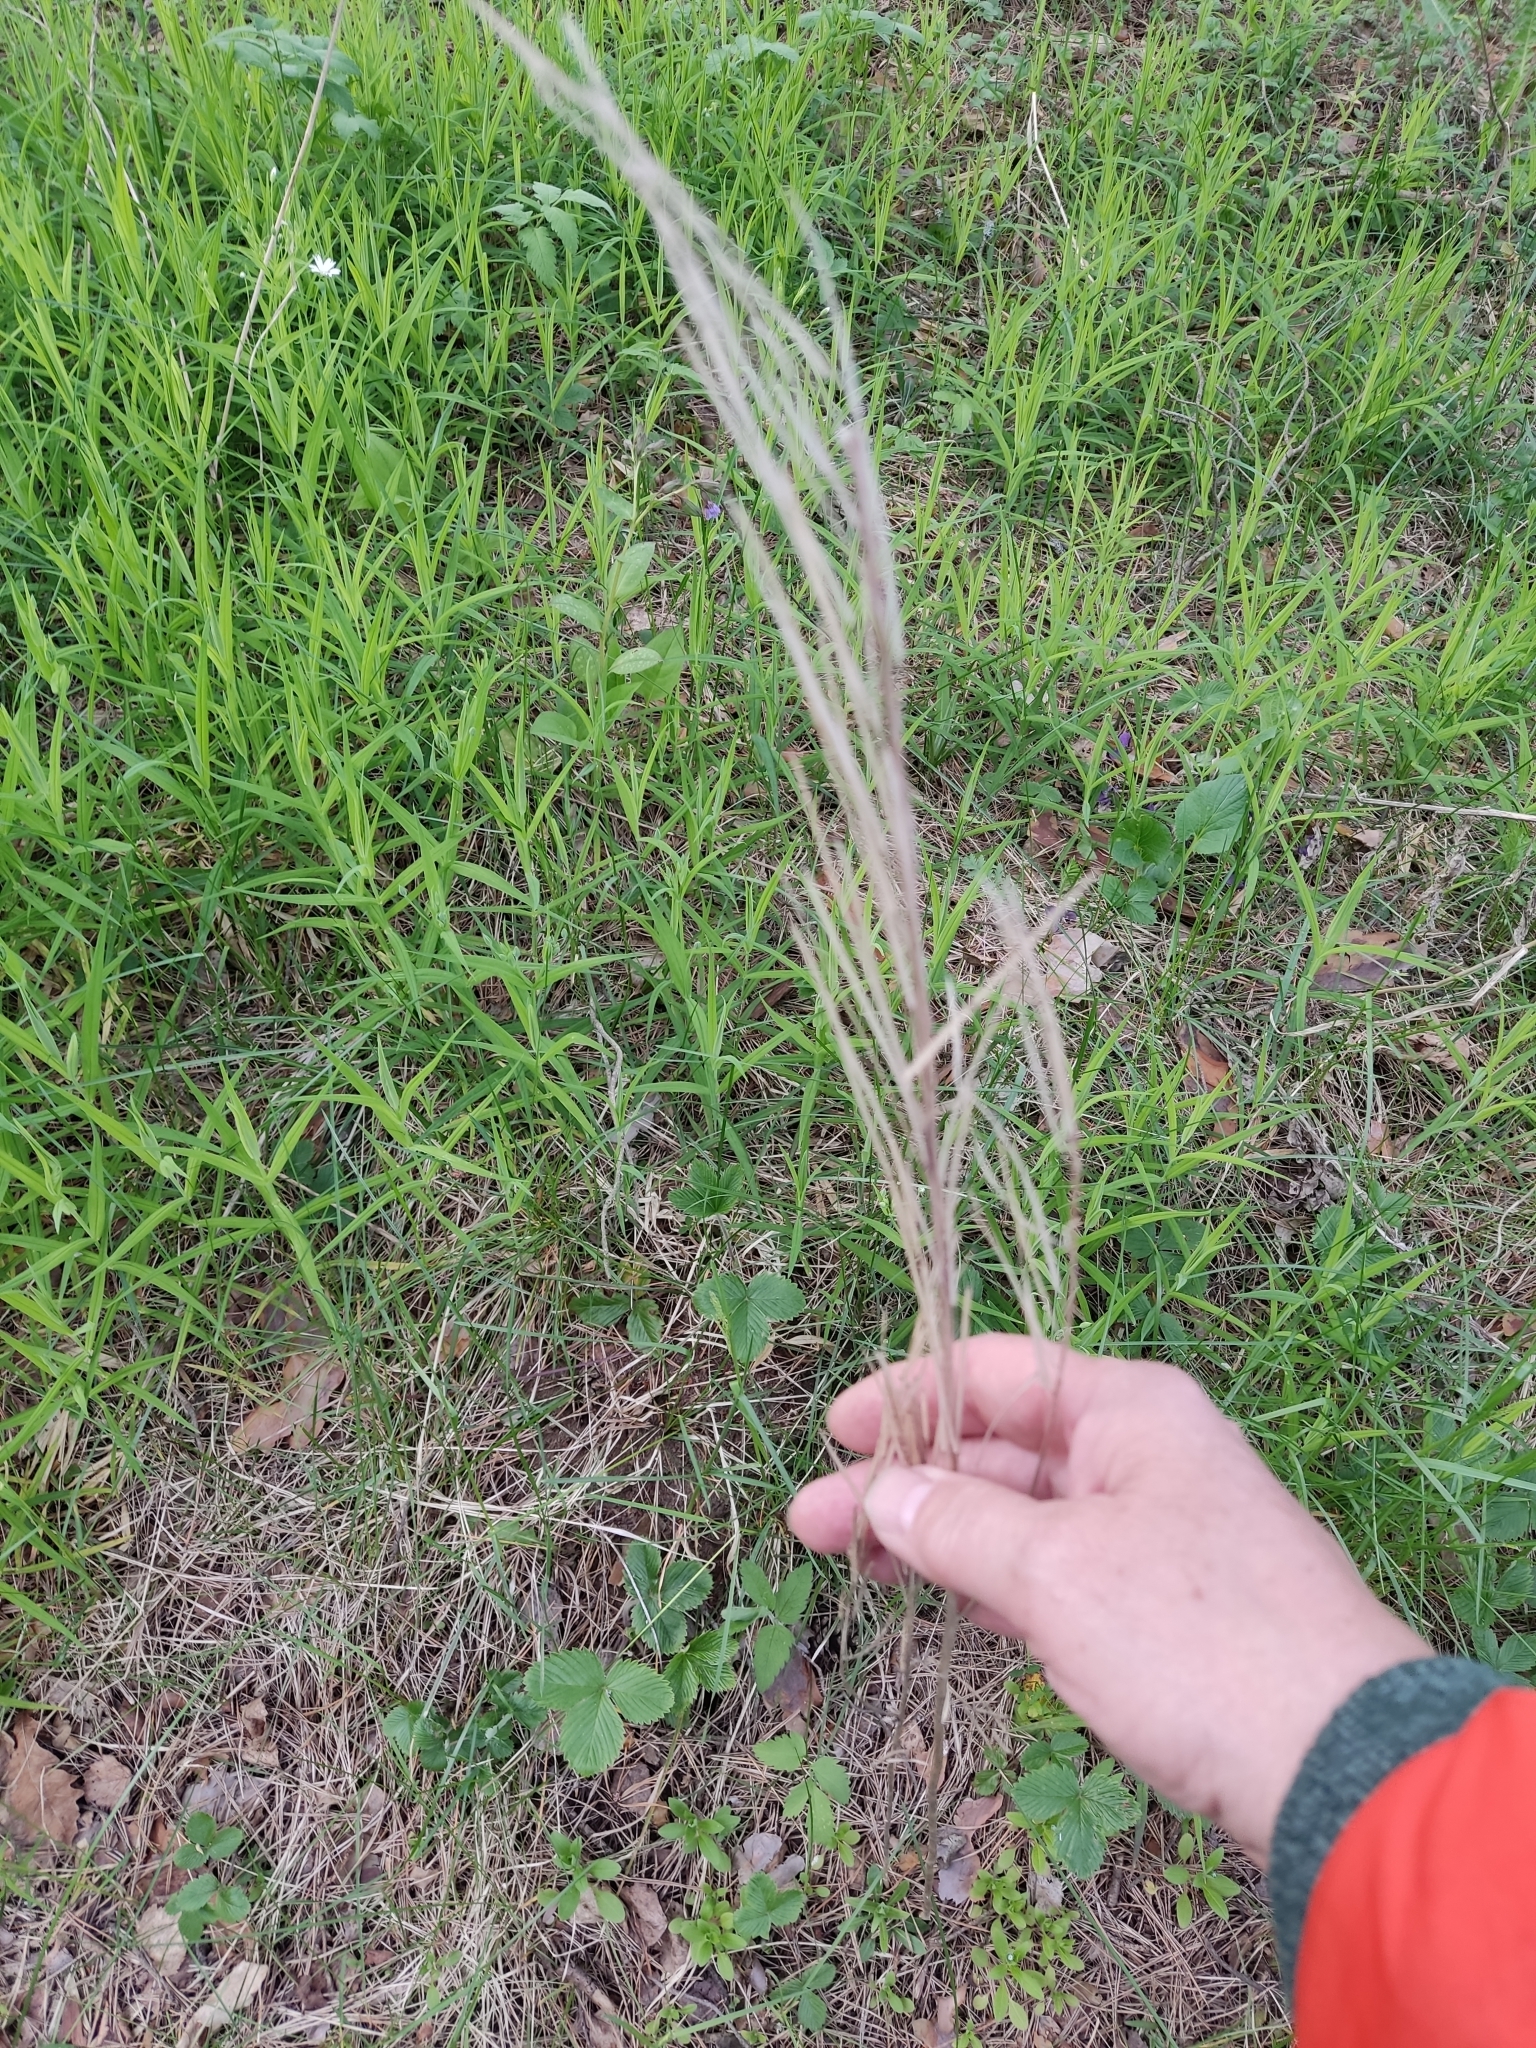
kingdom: Plantae
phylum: Tracheophyta
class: Magnoliopsida
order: Brassicales
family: Brassicaceae
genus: Turritis
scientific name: Turritis glabra
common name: Tower rockcress
